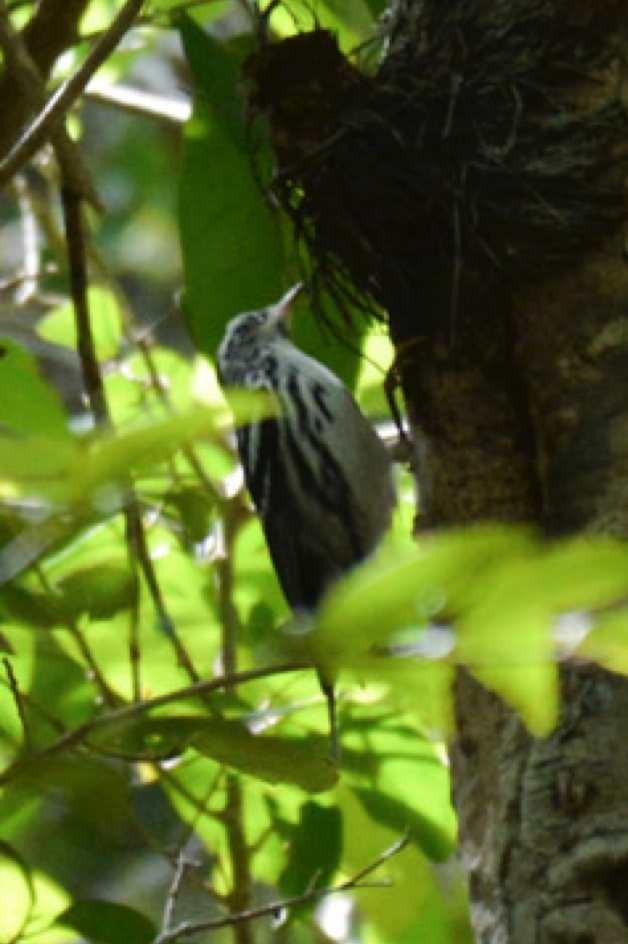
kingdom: Animalia
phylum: Chordata
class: Aves
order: Passeriformes
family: Parulidae
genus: Mniotilta
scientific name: Mniotilta varia
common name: Black-and-white warbler
